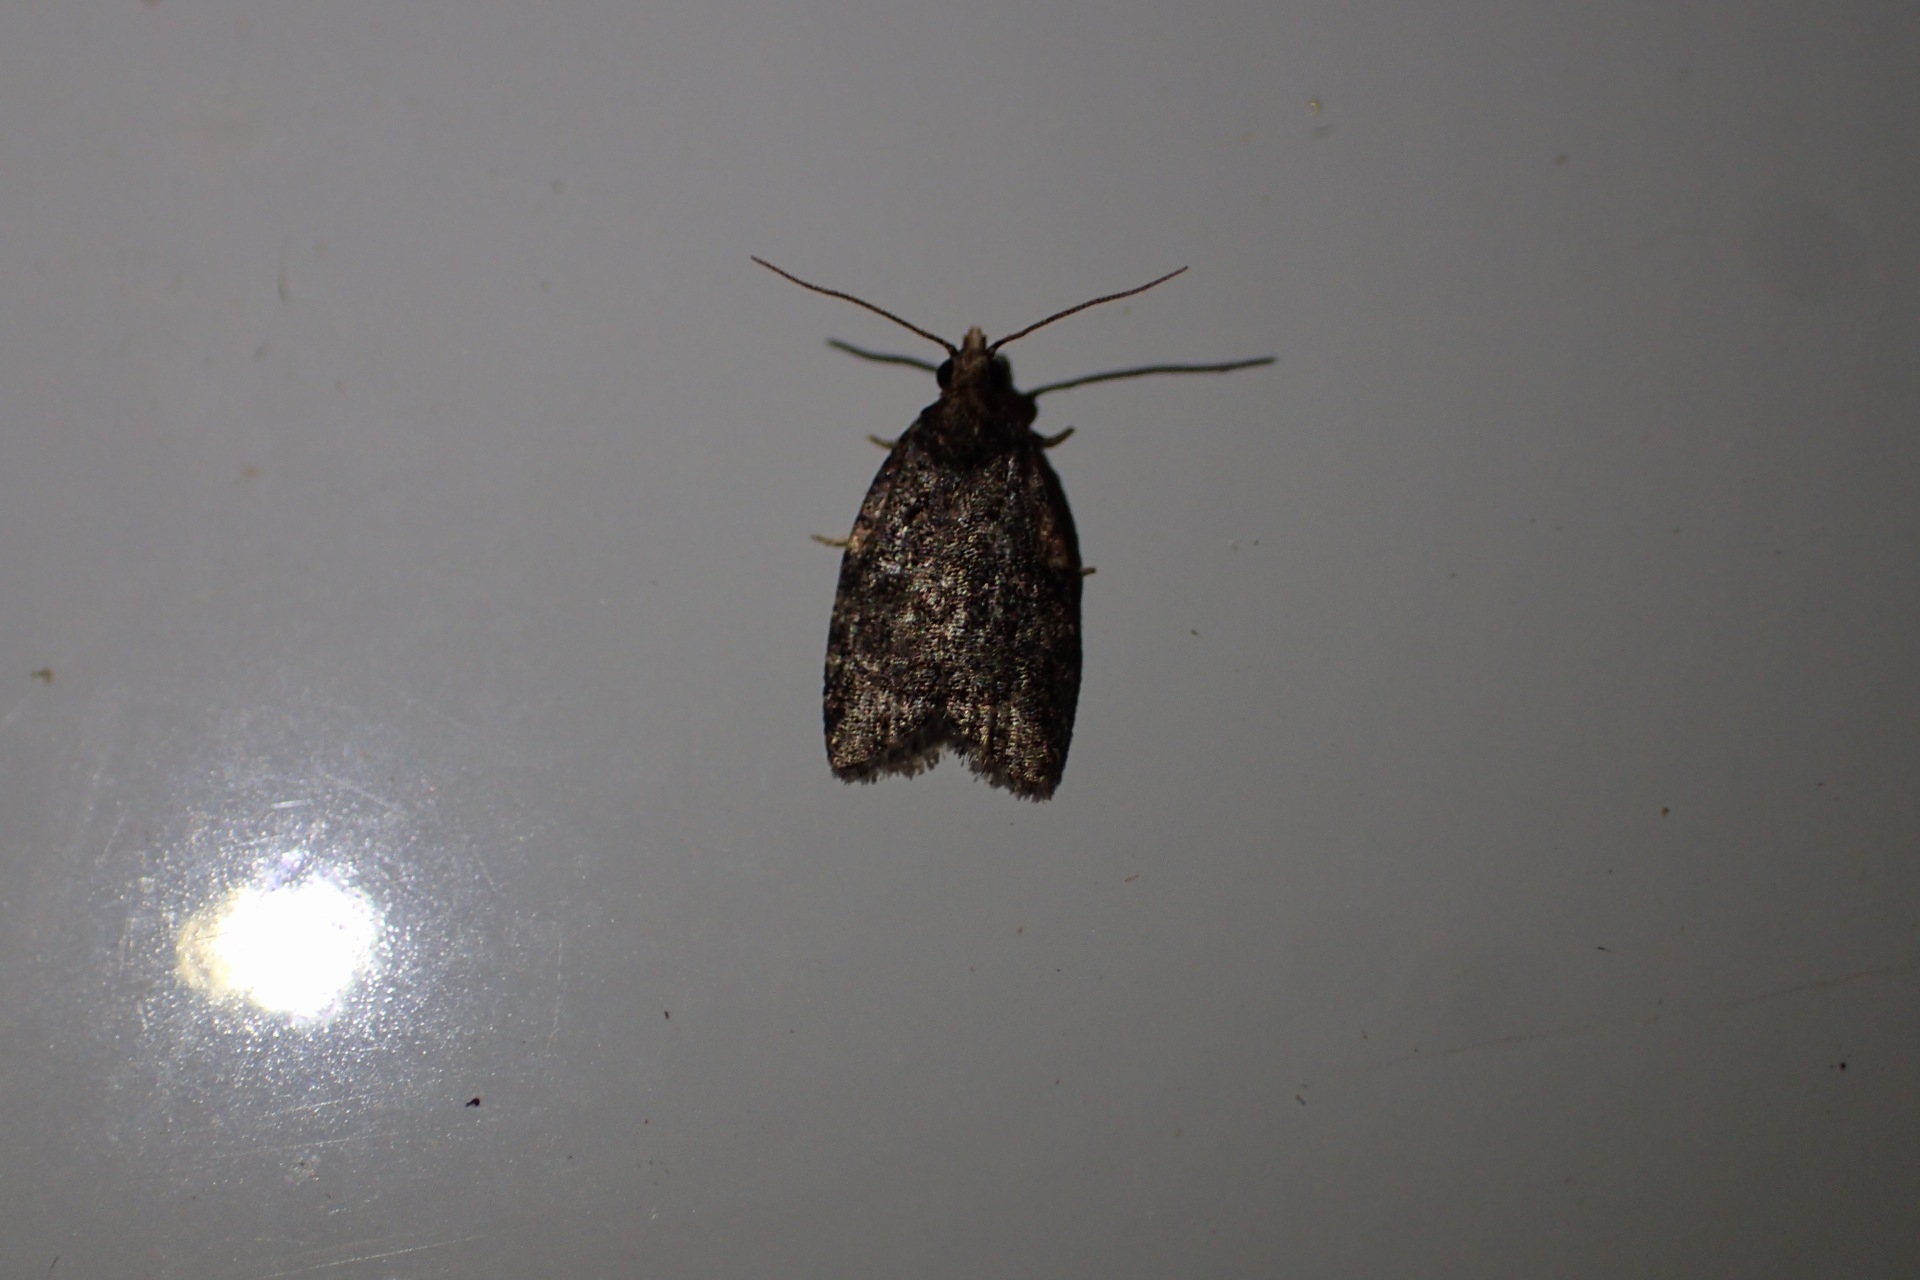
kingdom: Animalia
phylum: Arthropoda
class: Insecta
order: Lepidoptera
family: Tortricidae
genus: Capua
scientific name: Capua intractana
